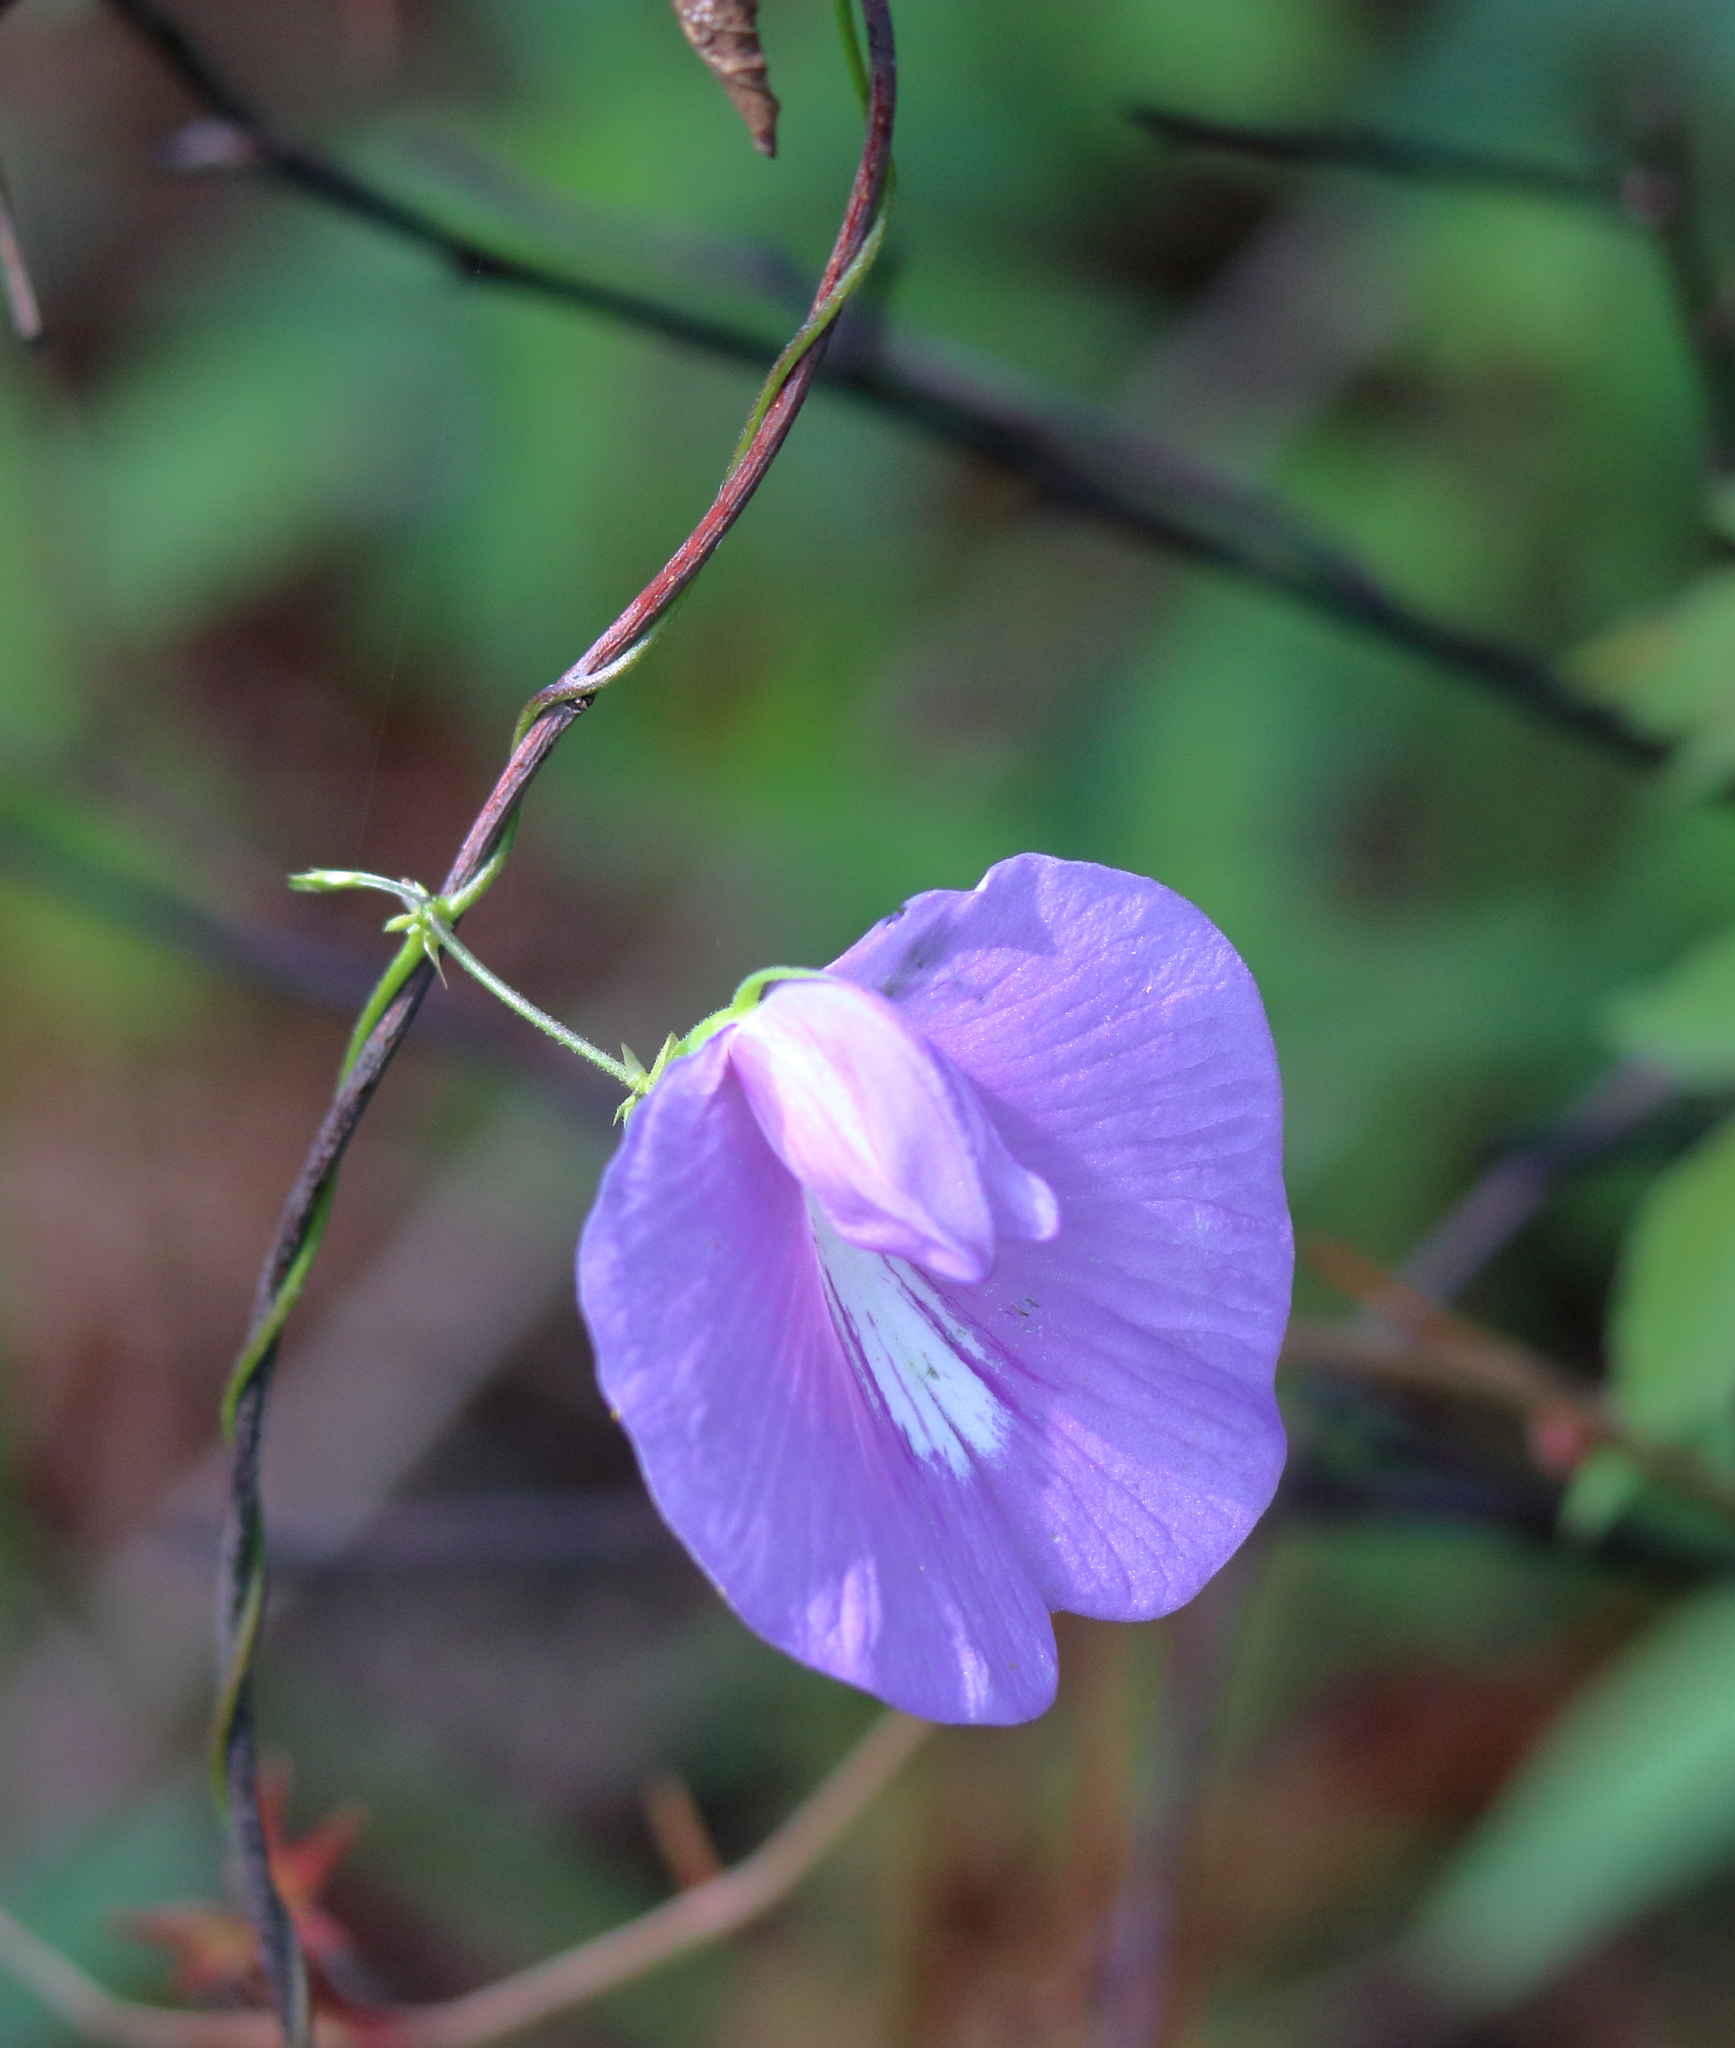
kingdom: Plantae
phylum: Tracheophyta
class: Magnoliopsida
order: Fabales
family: Fabaceae
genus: Centrosema
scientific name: Centrosema virginianum
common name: Butterfly-pea
